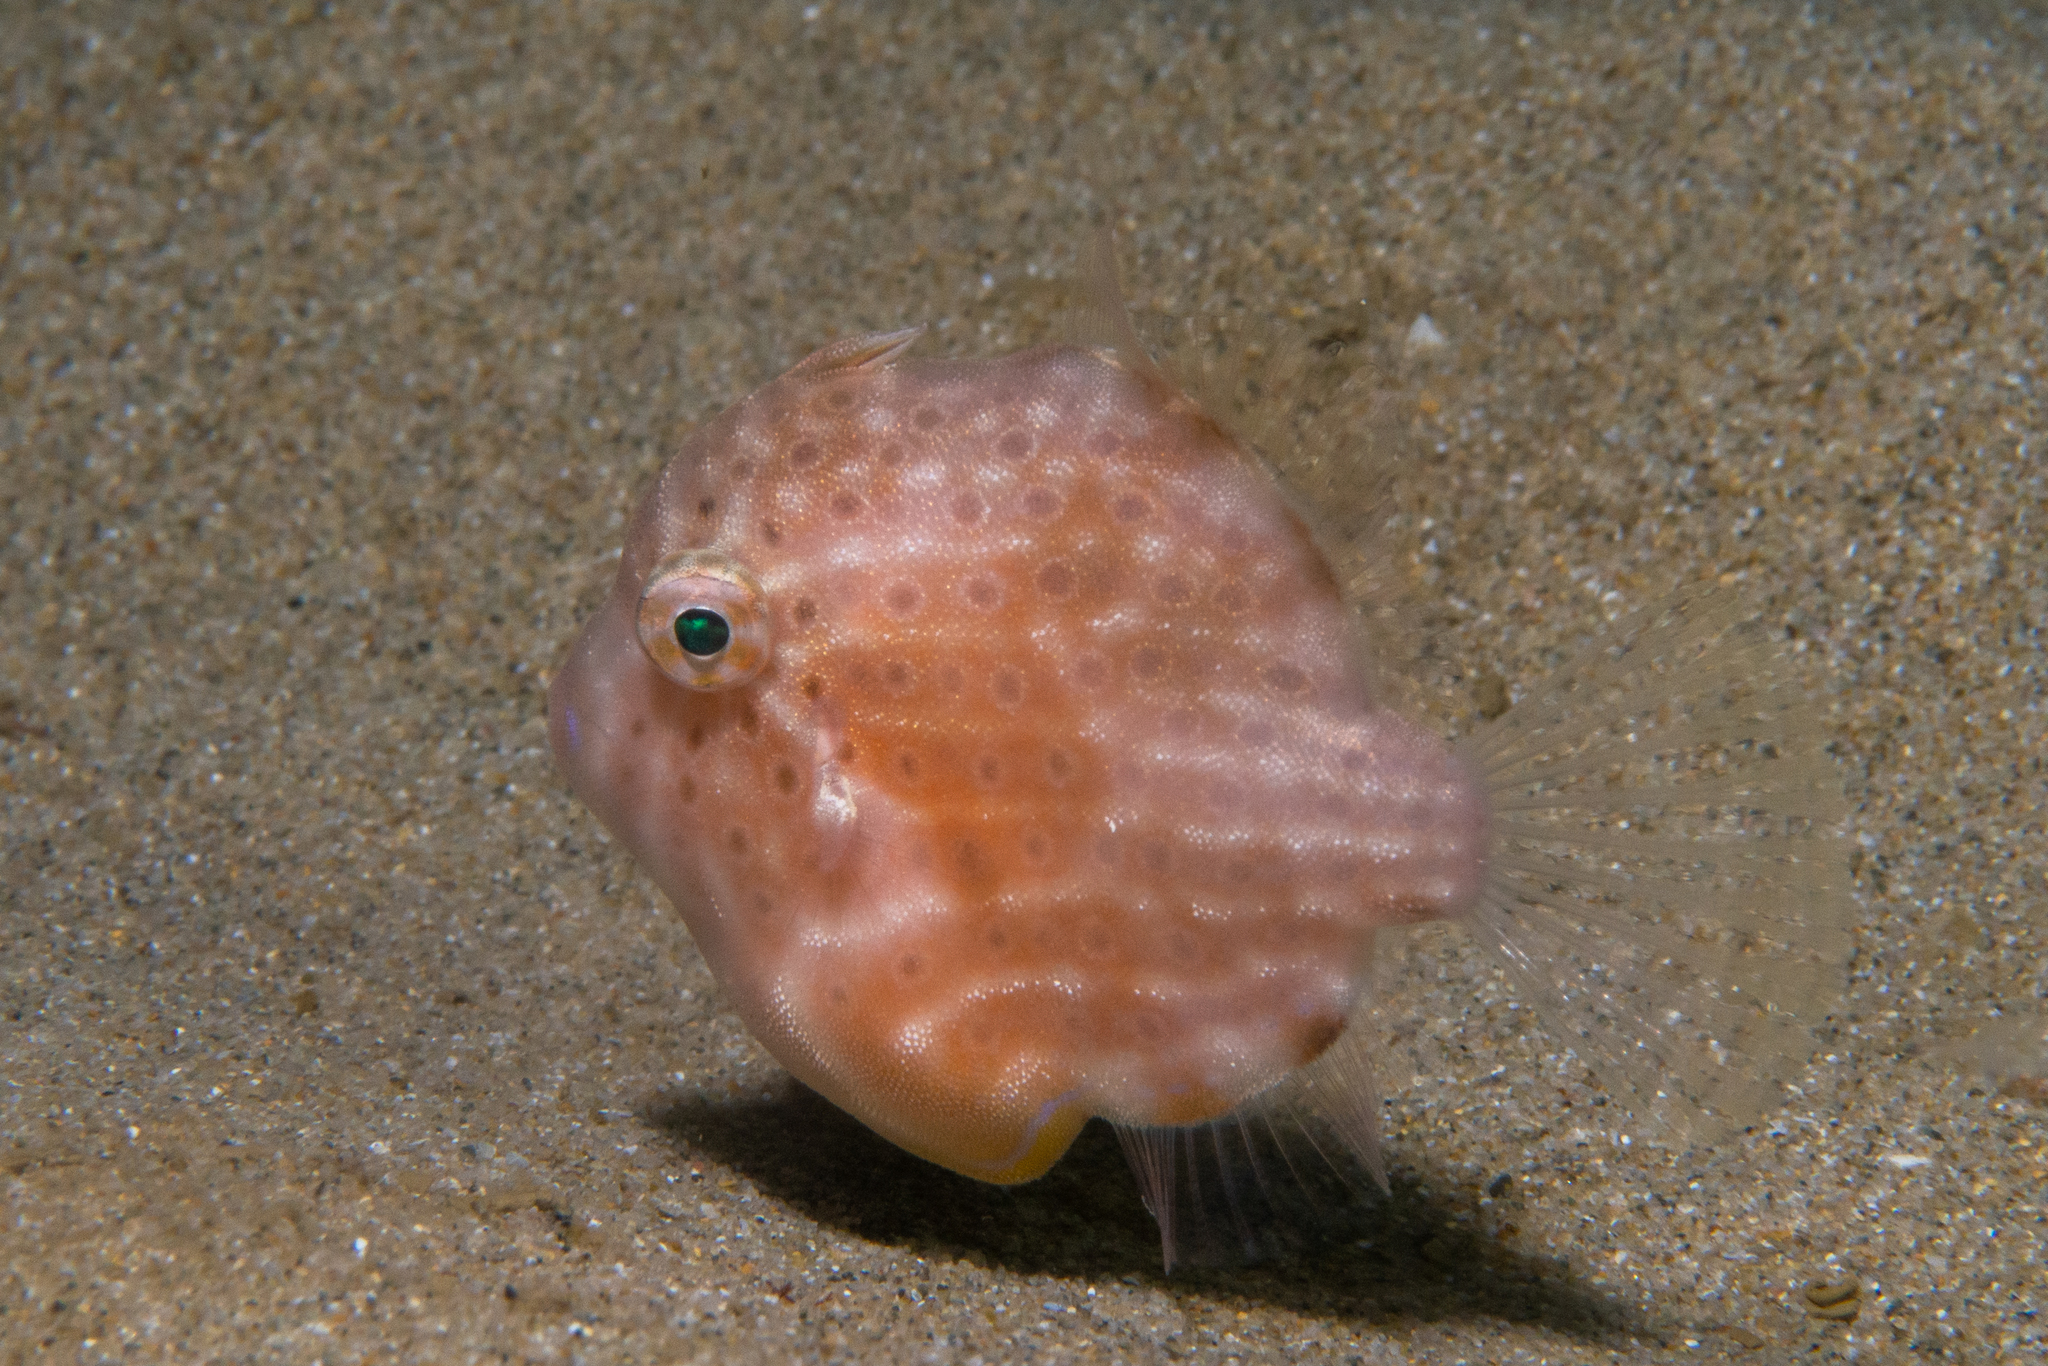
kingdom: Animalia
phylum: Chordata
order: Tetraodontiformes
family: Monacanthidae
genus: Brachaluteres
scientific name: Brachaluteres jacksonianus
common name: Pigmy leatherjacket
